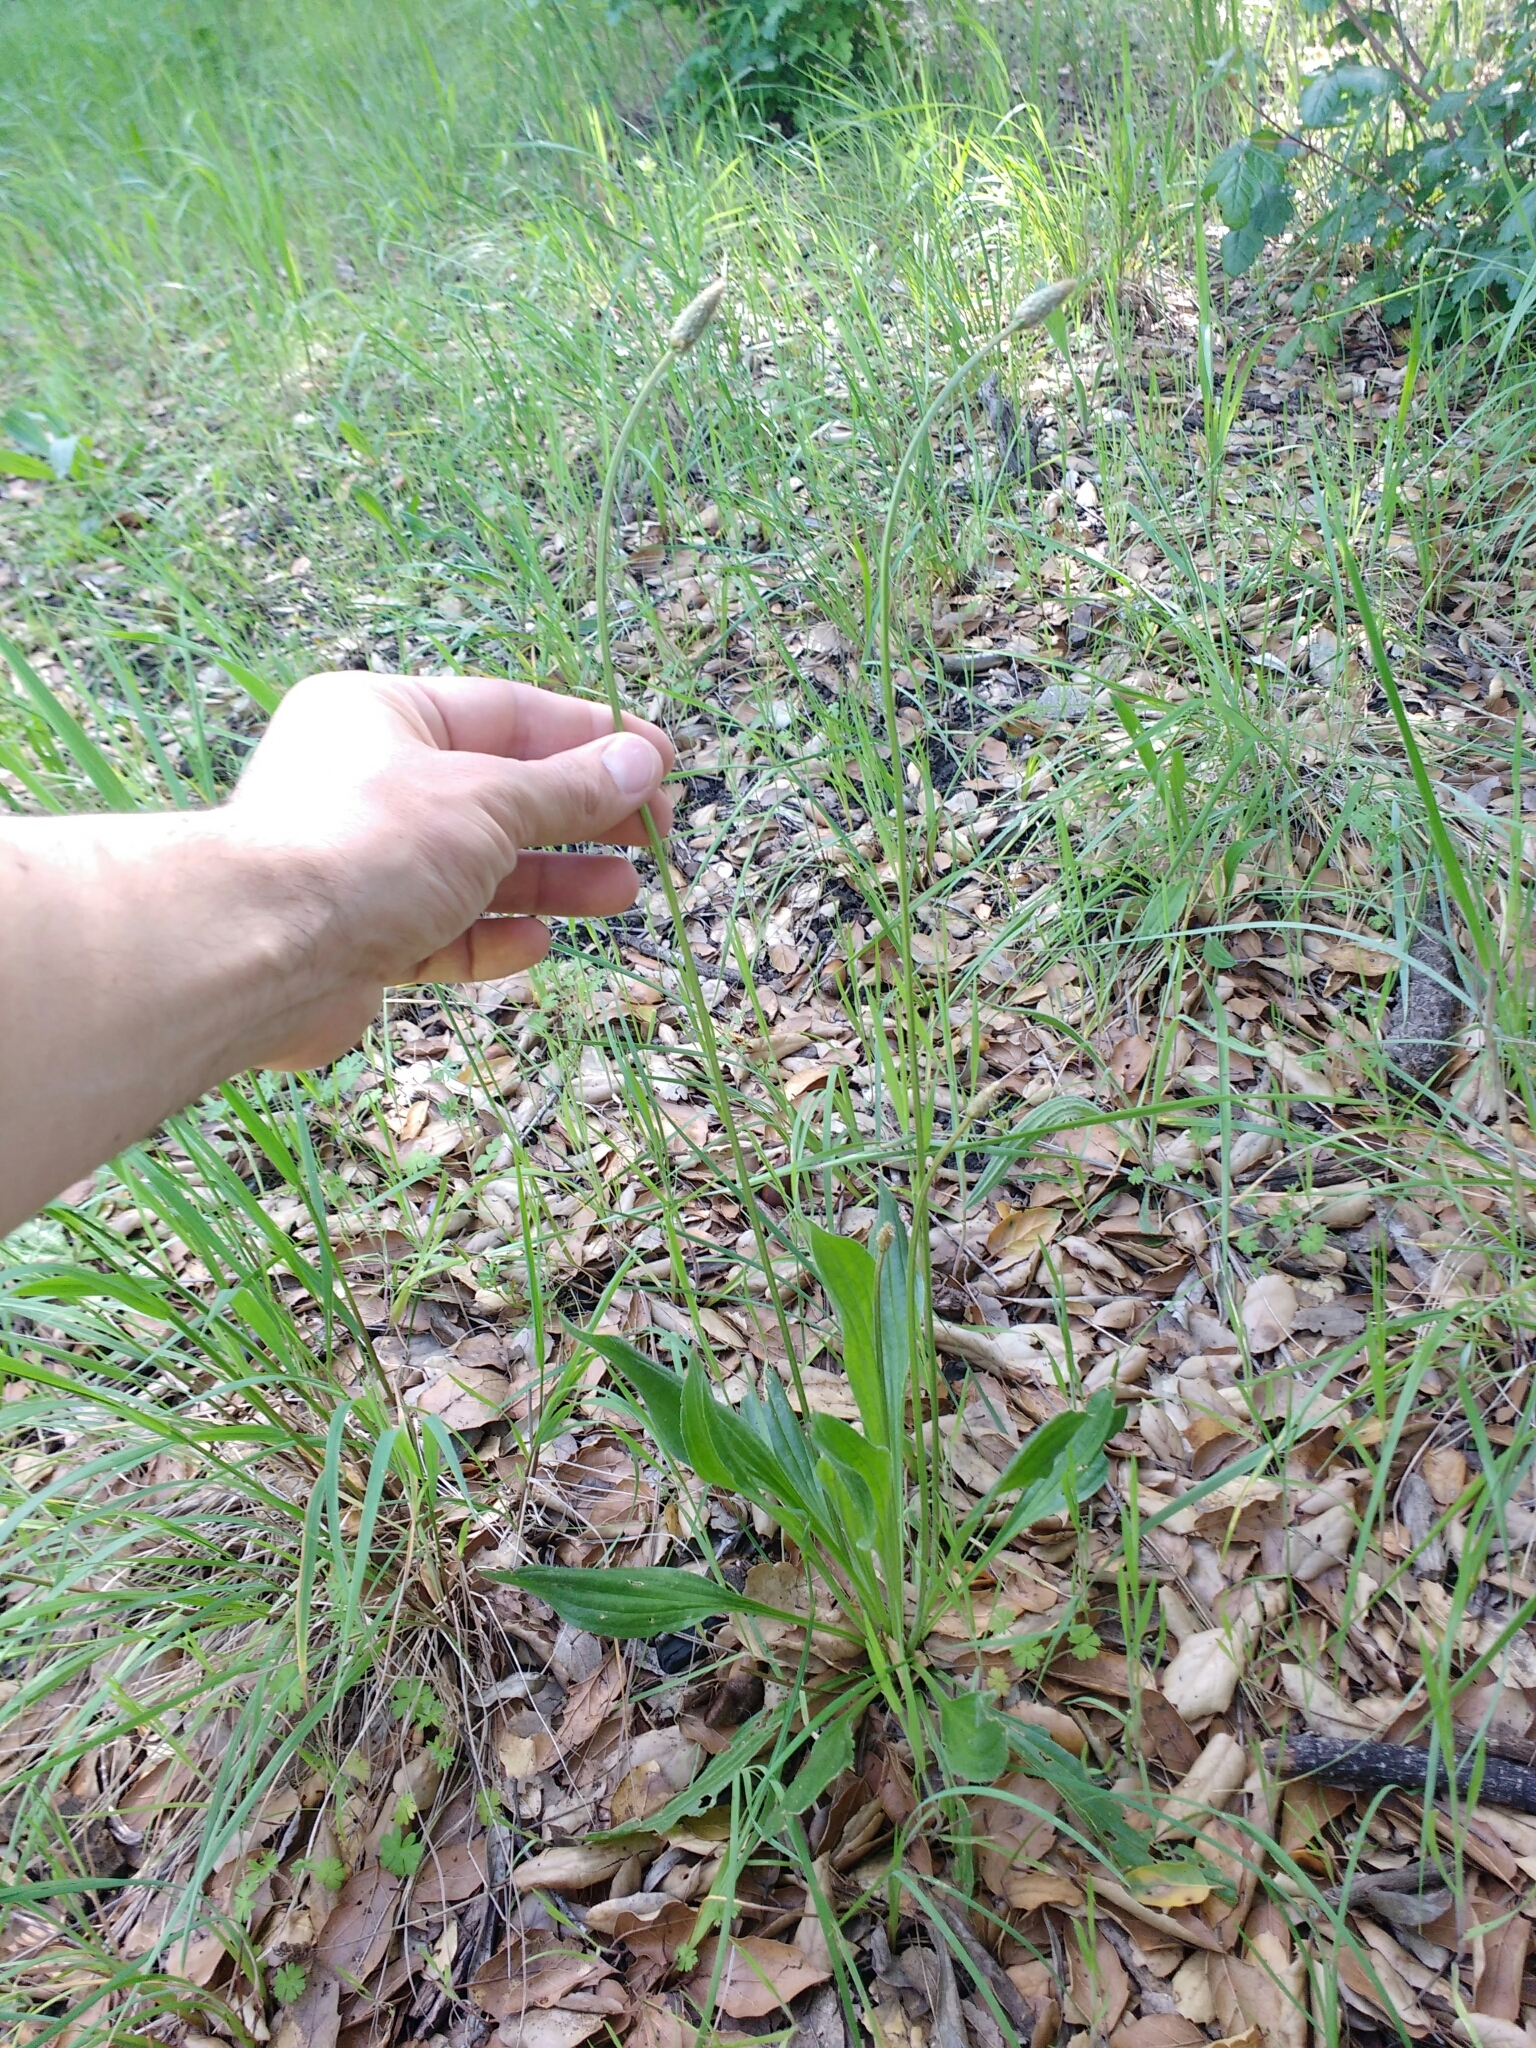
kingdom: Plantae
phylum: Tracheophyta
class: Magnoliopsida
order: Lamiales
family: Plantaginaceae
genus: Plantago
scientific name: Plantago lanceolata
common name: Ribwort plantain
